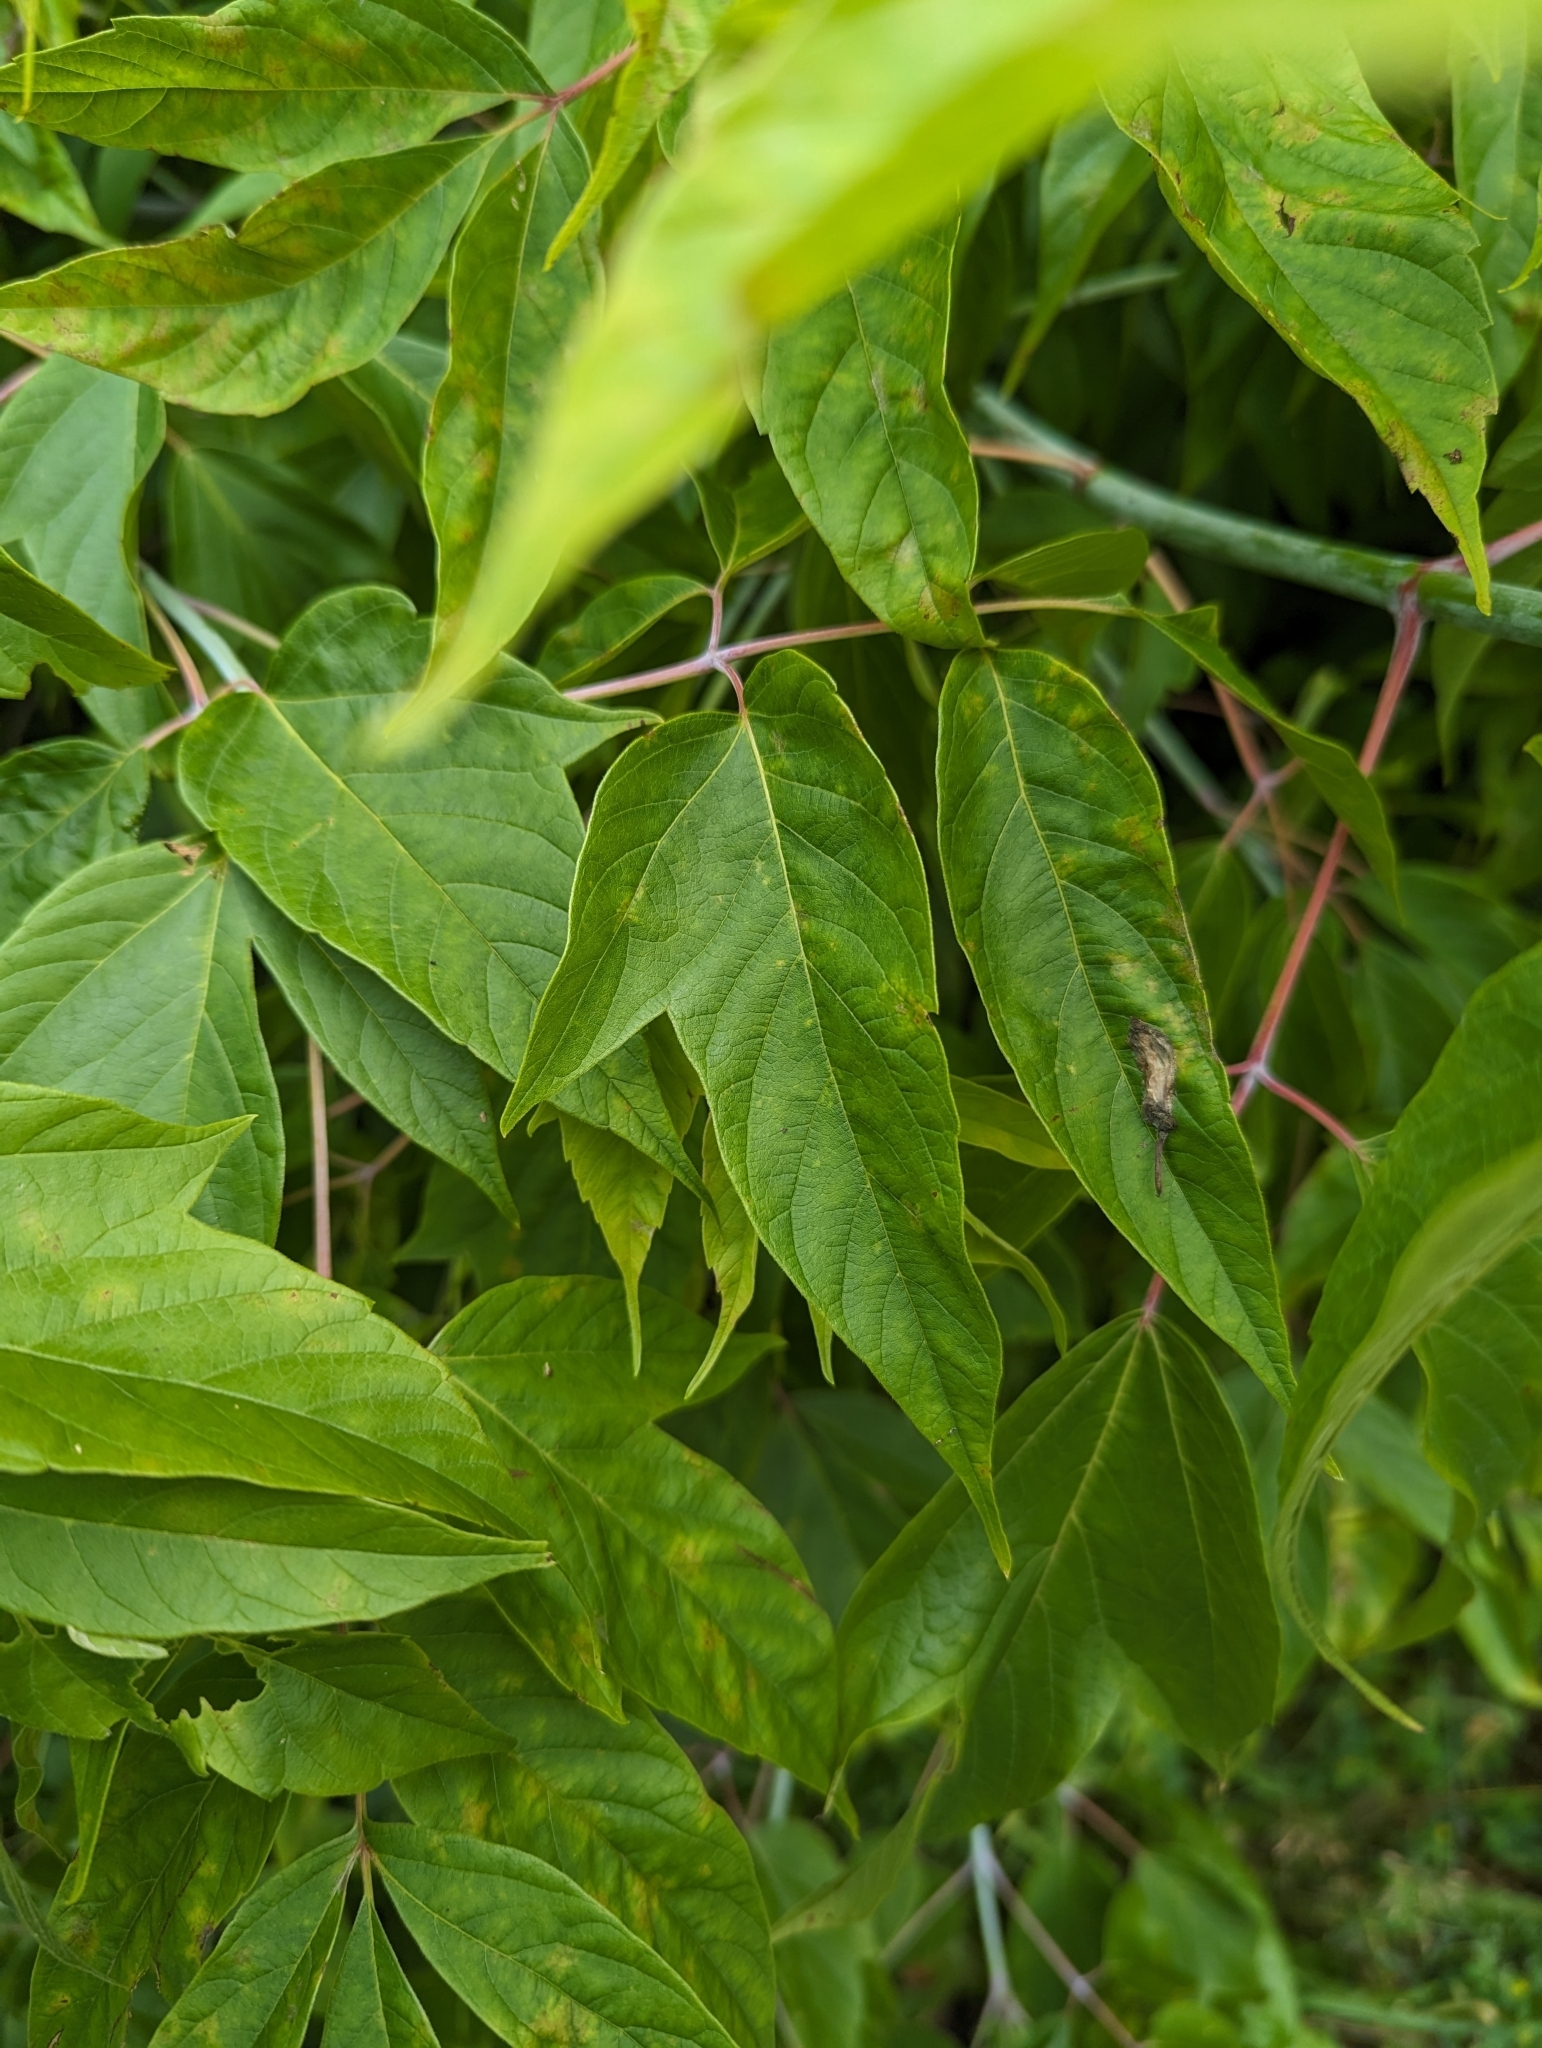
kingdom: Plantae
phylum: Tracheophyta
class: Magnoliopsida
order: Sapindales
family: Sapindaceae
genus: Acer
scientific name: Acer negundo
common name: Ashleaf maple
